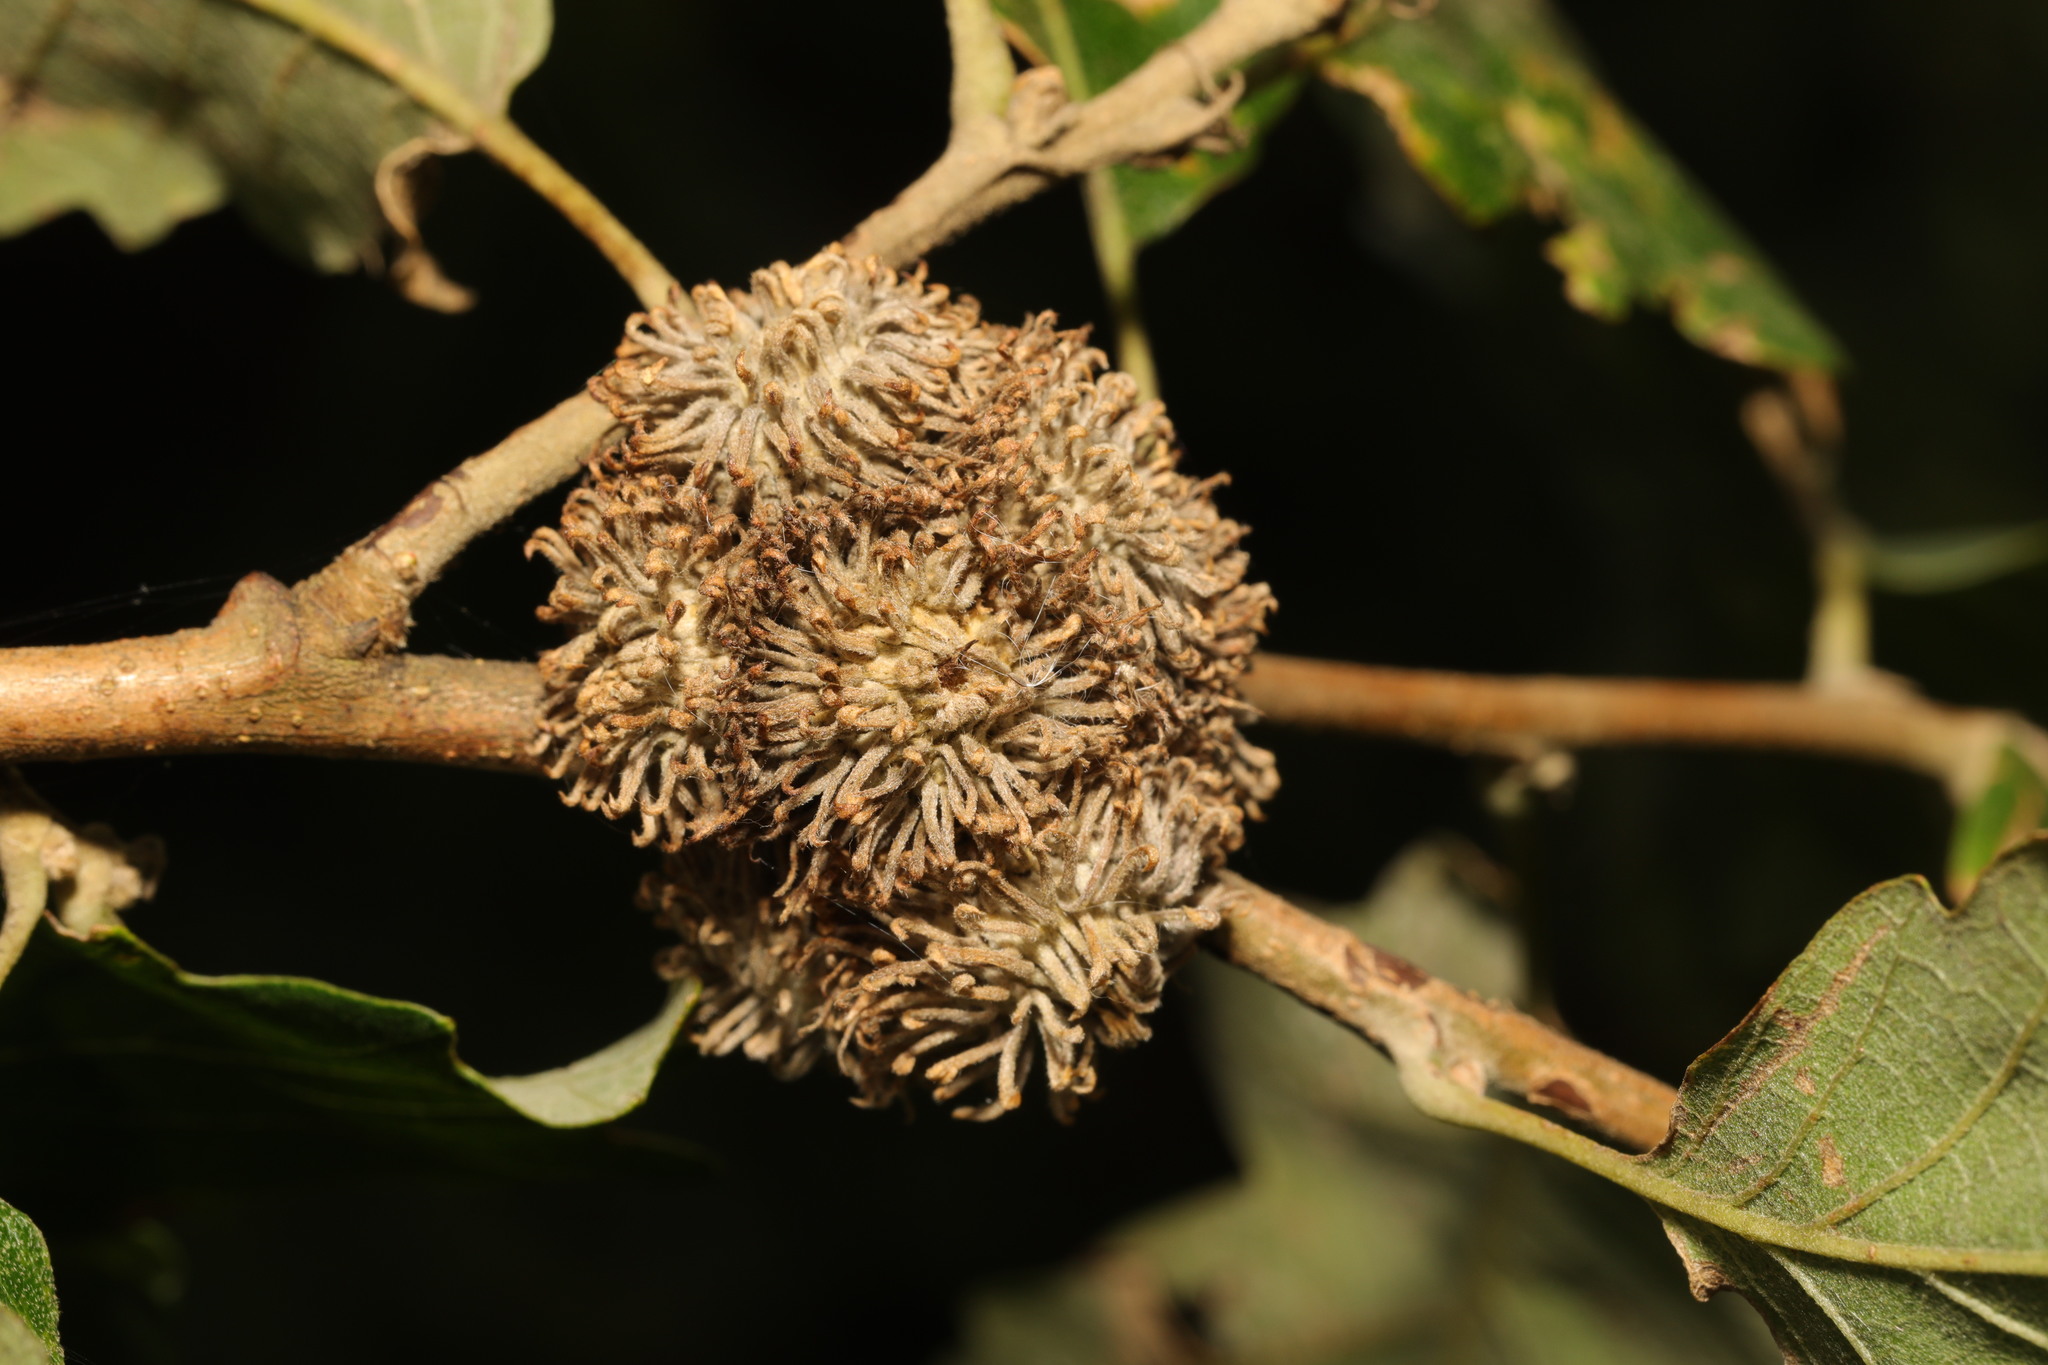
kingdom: Plantae
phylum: Tracheophyta
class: Magnoliopsida
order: Fagales
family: Fagaceae
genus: Quercus
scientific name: Quercus cerris
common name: Turkey oak
